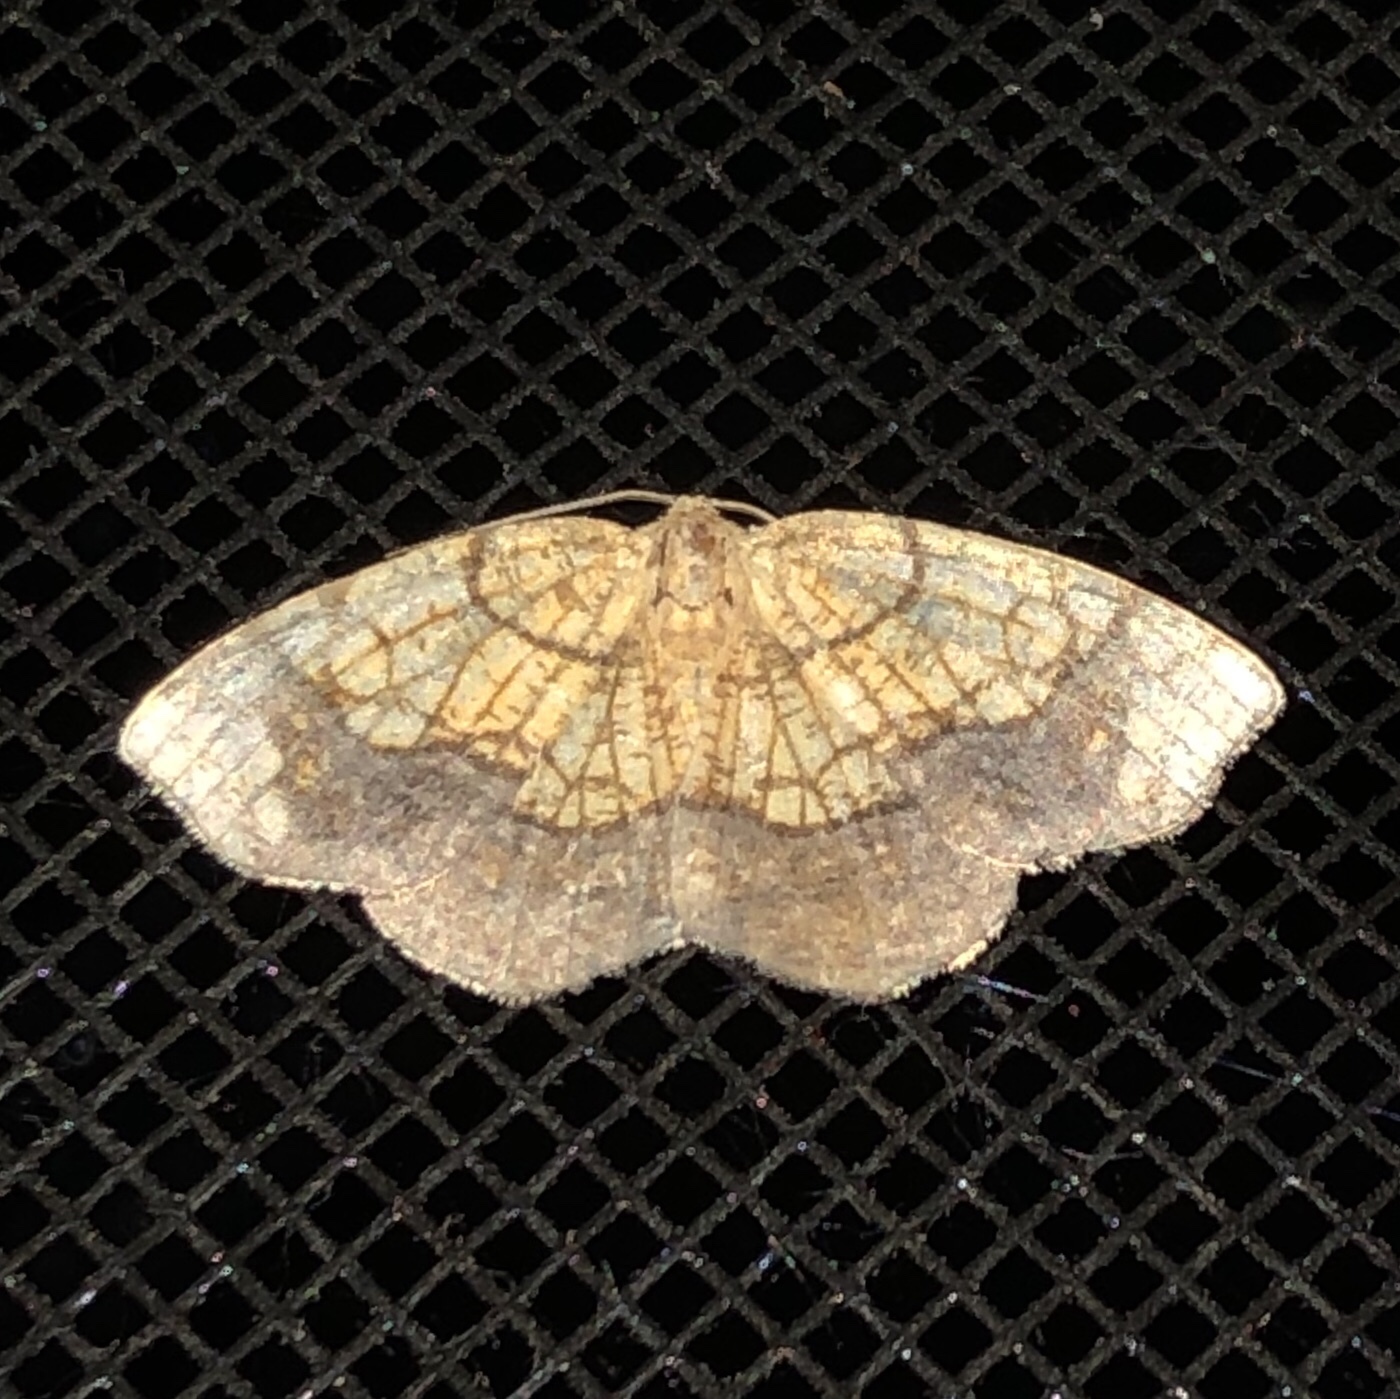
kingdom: Animalia
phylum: Arthropoda
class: Insecta
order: Lepidoptera
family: Geometridae
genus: Nematocampa
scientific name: Nematocampa resistaria
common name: Horned spanworm moth
